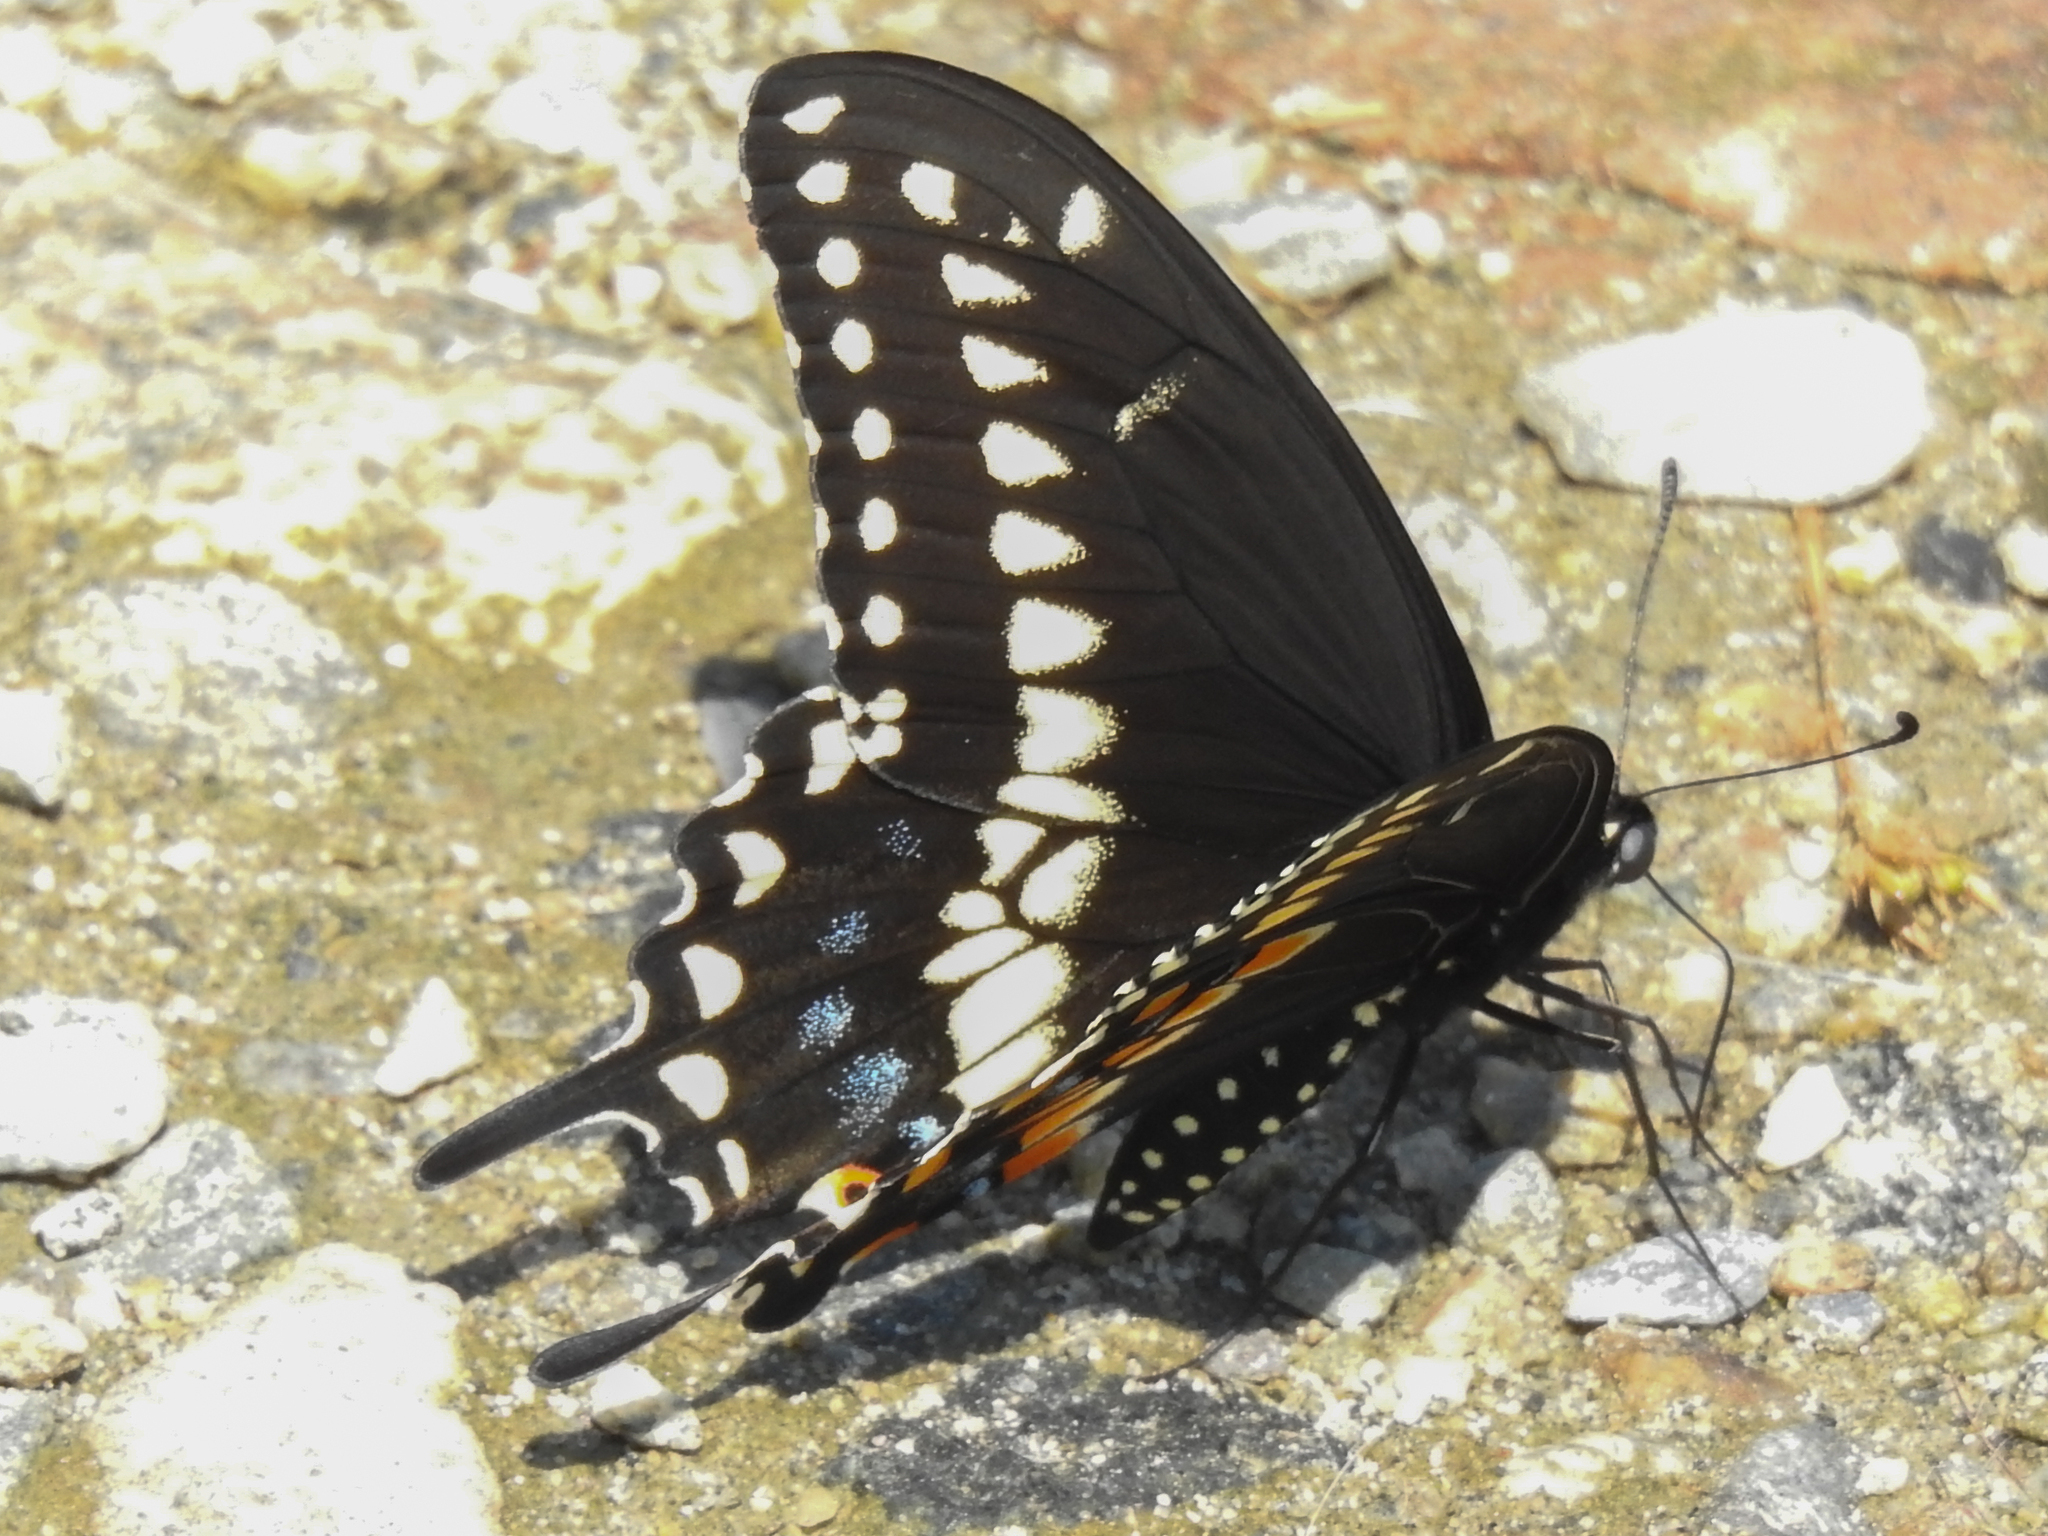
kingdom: Animalia
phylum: Arthropoda
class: Insecta
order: Lepidoptera
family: Papilionidae
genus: Papilio
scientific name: Papilio polyxenes
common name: Black swallowtail
